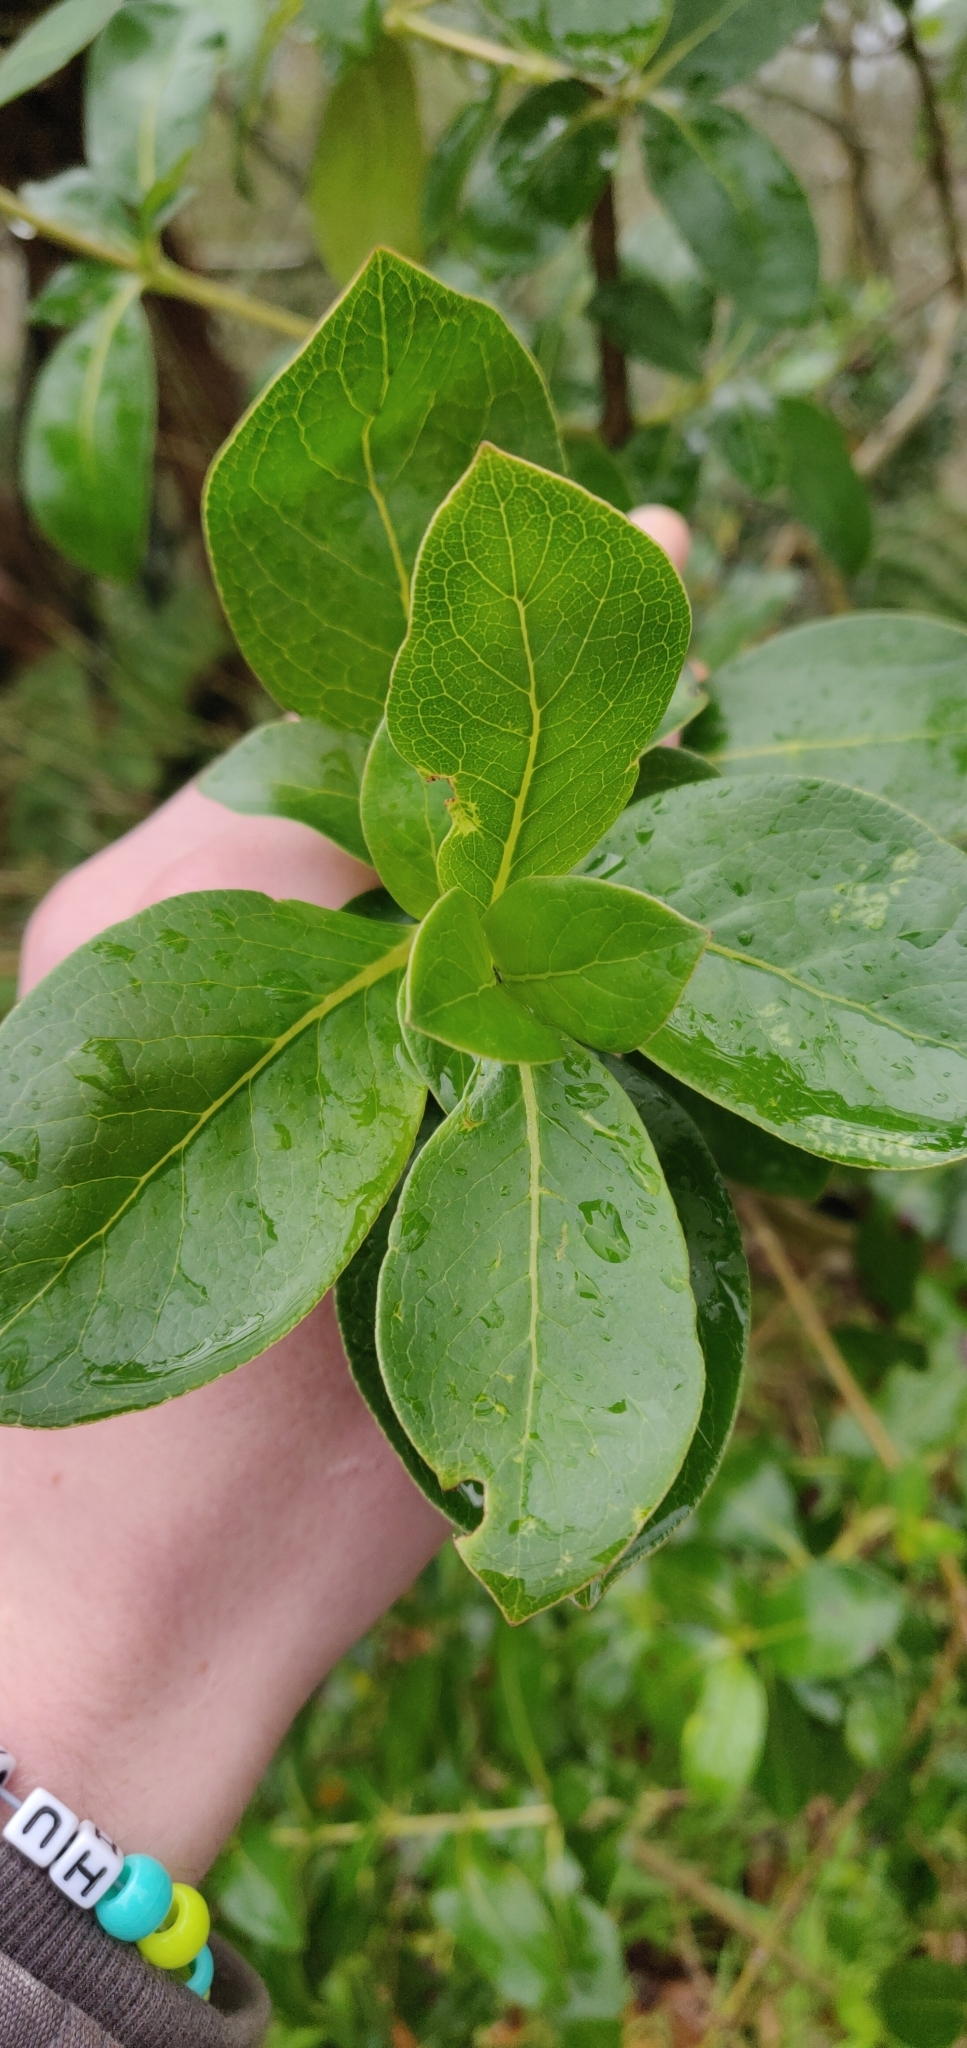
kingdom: Plantae
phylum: Tracheophyta
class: Magnoliopsida
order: Gentianales
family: Rubiaceae
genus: Coprosma
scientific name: Coprosma robusta
